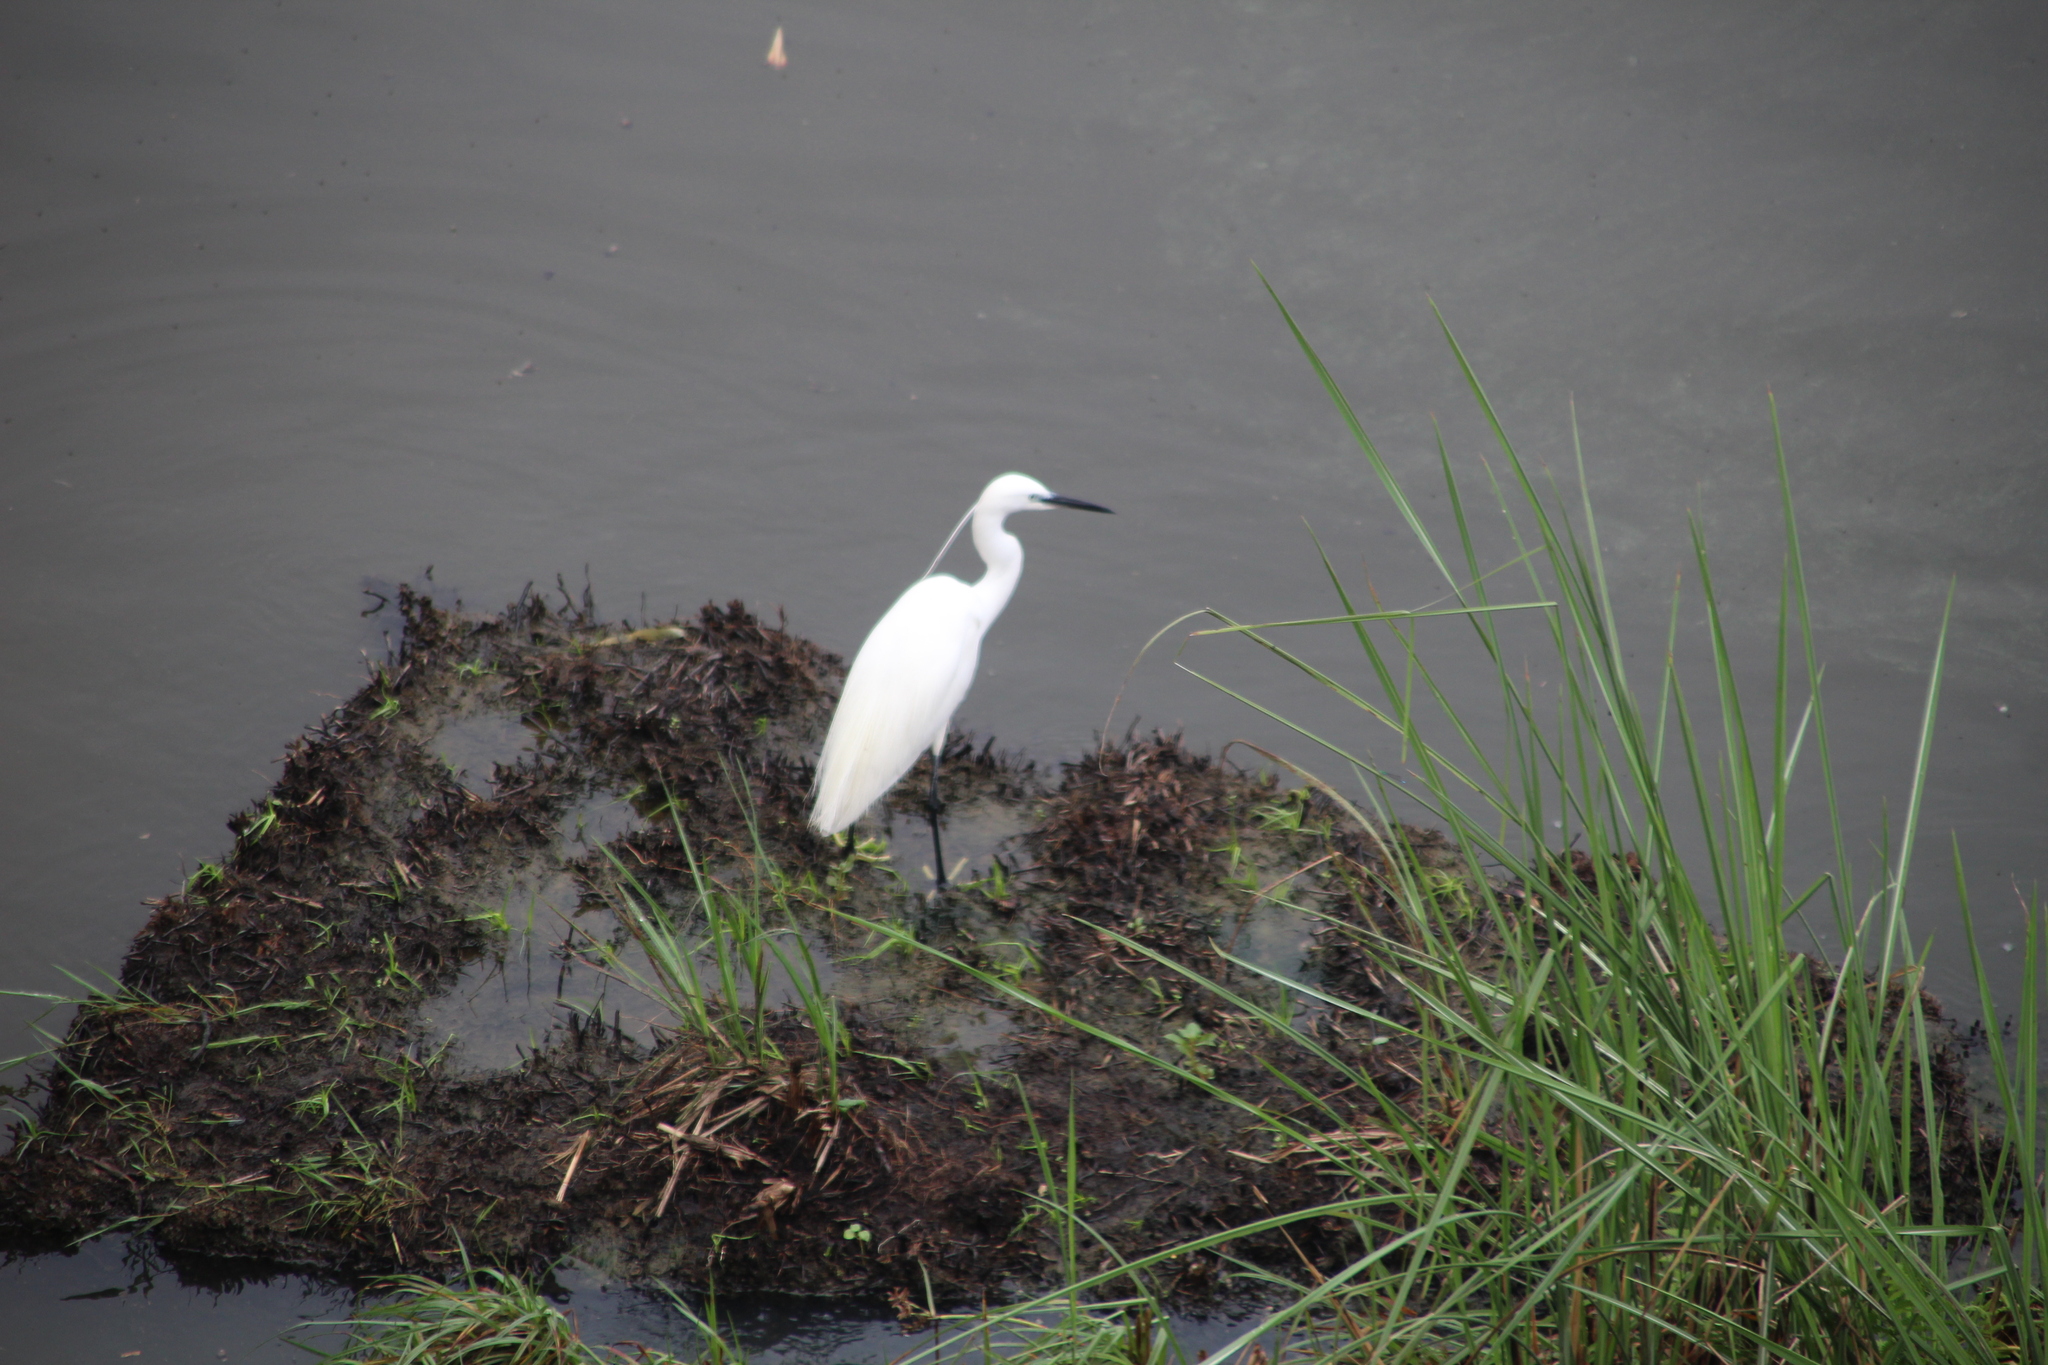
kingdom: Animalia
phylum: Chordata
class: Aves
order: Pelecaniformes
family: Ardeidae
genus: Egretta
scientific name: Egretta garzetta
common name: Little egret
